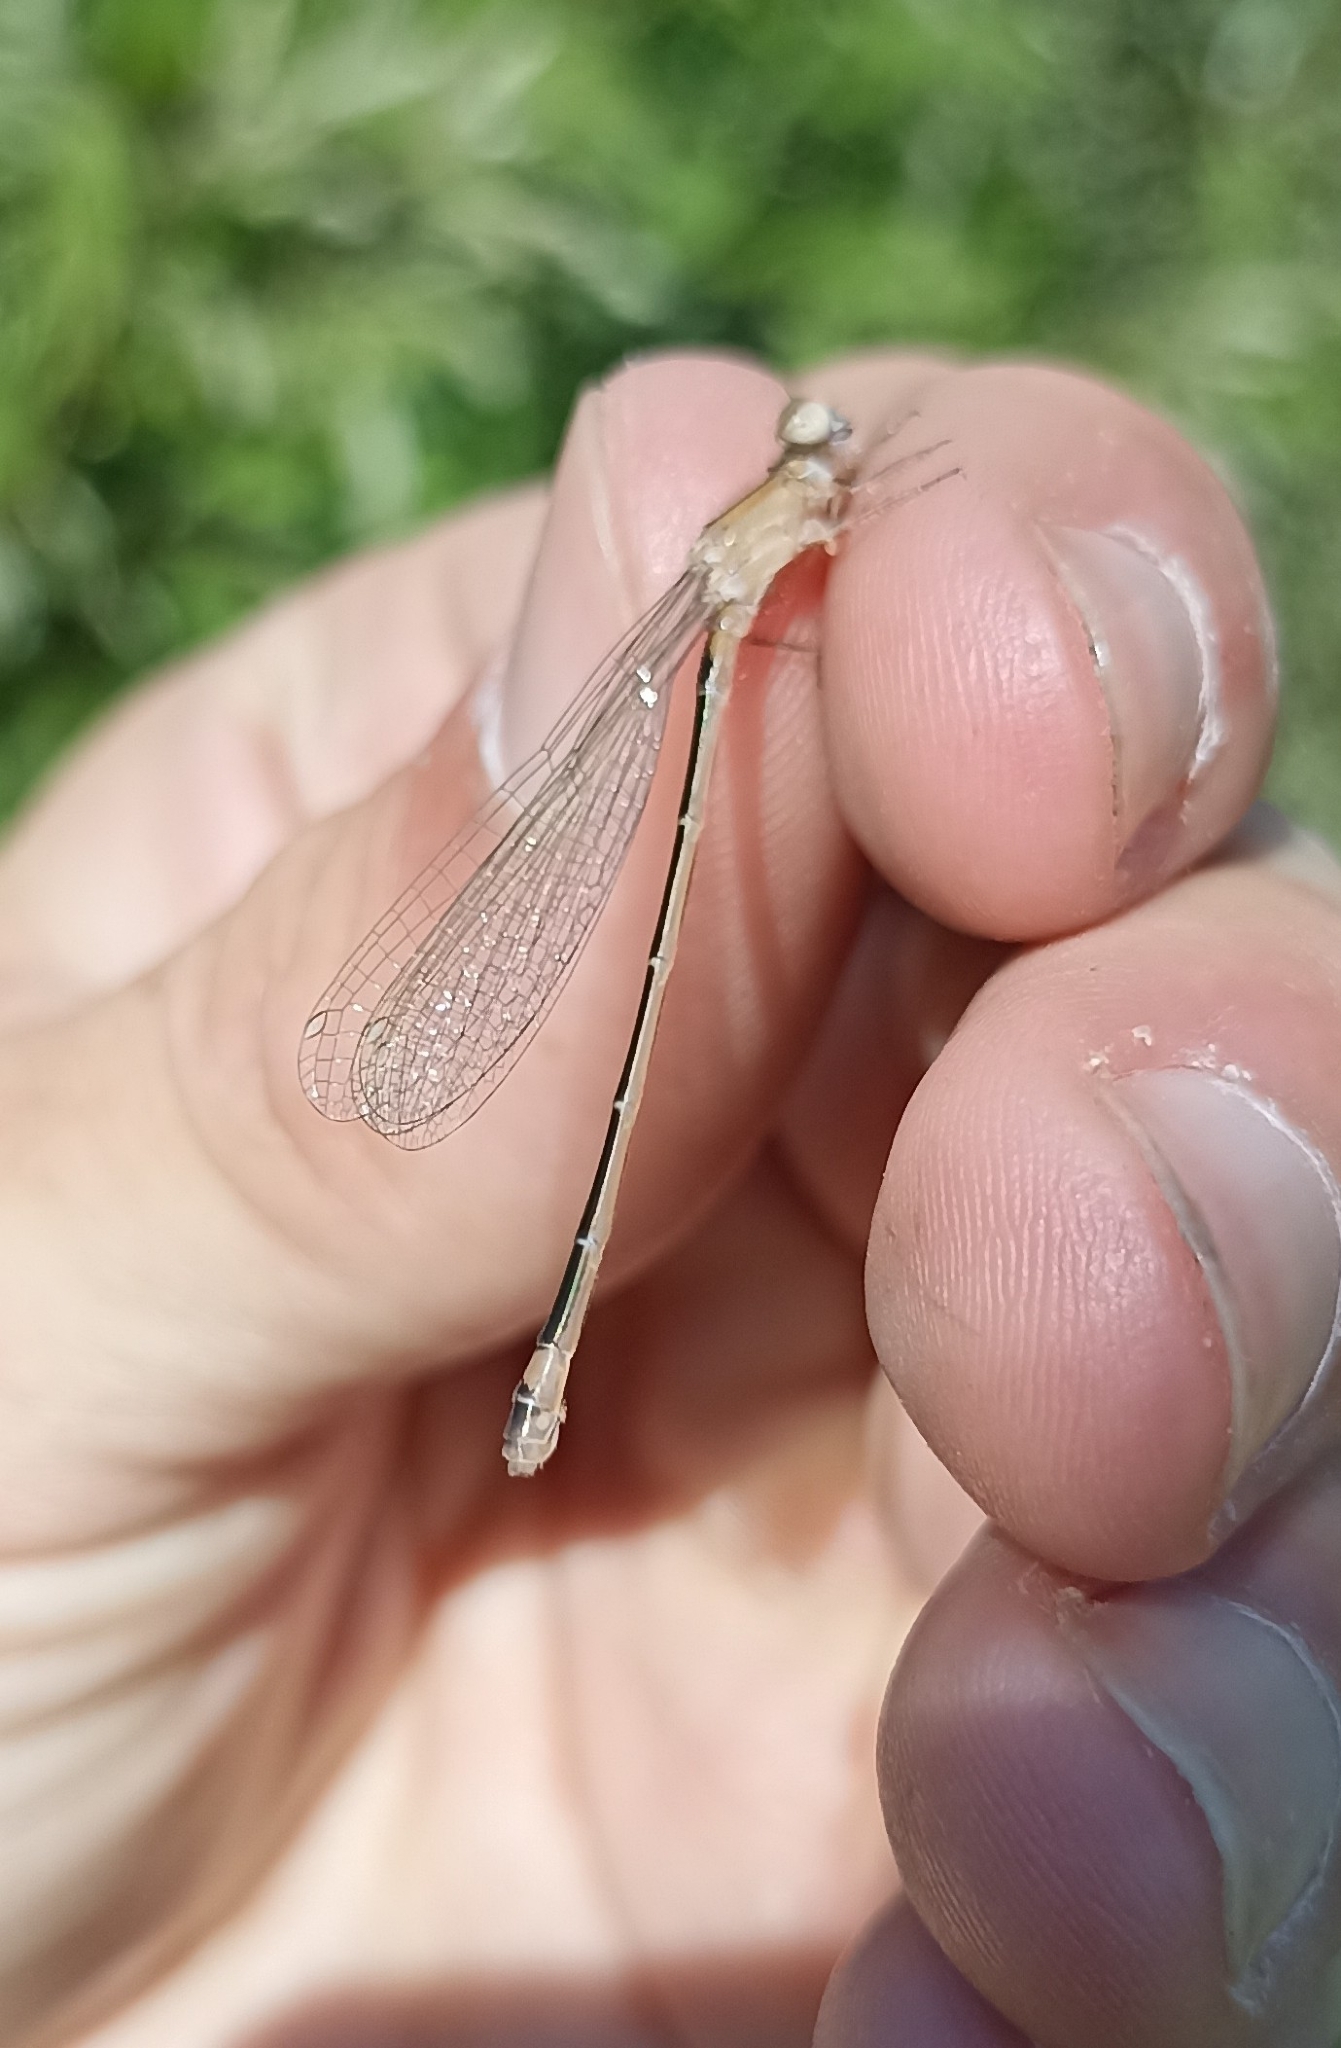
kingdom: Animalia
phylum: Arthropoda
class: Insecta
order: Odonata
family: Coenagrionidae
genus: Ischnura
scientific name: Ischnura elegans
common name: Blue-tailed damselfly
